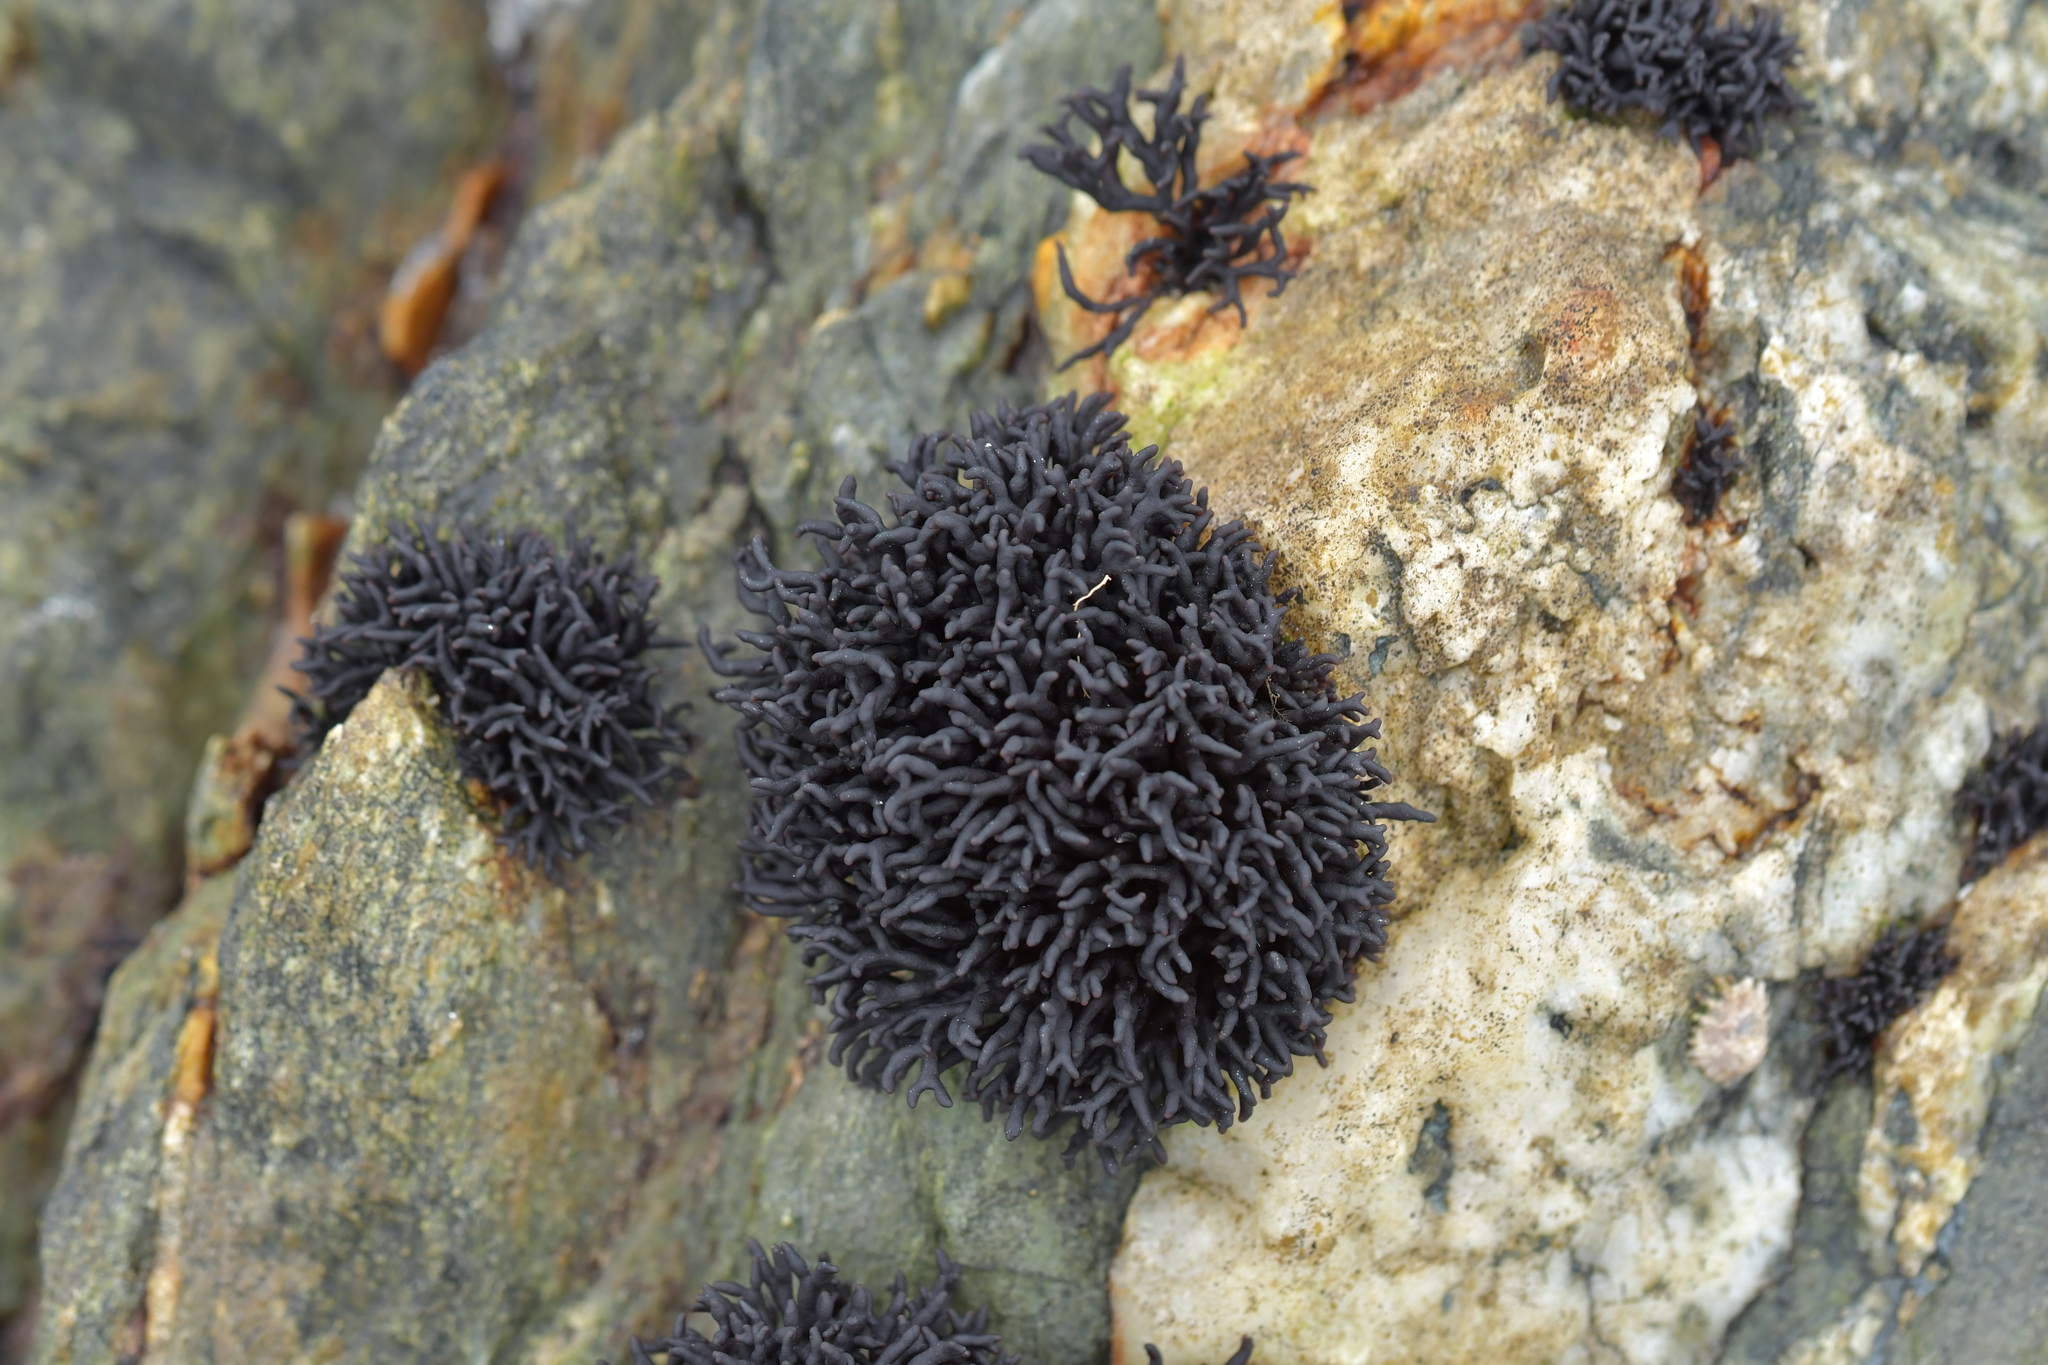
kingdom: Plantae
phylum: Rhodophyta
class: Florideophyceae
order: Hildenbrandiales
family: Hildenbrandiaceae
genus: Apophlaea
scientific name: Apophlaea lyallii
